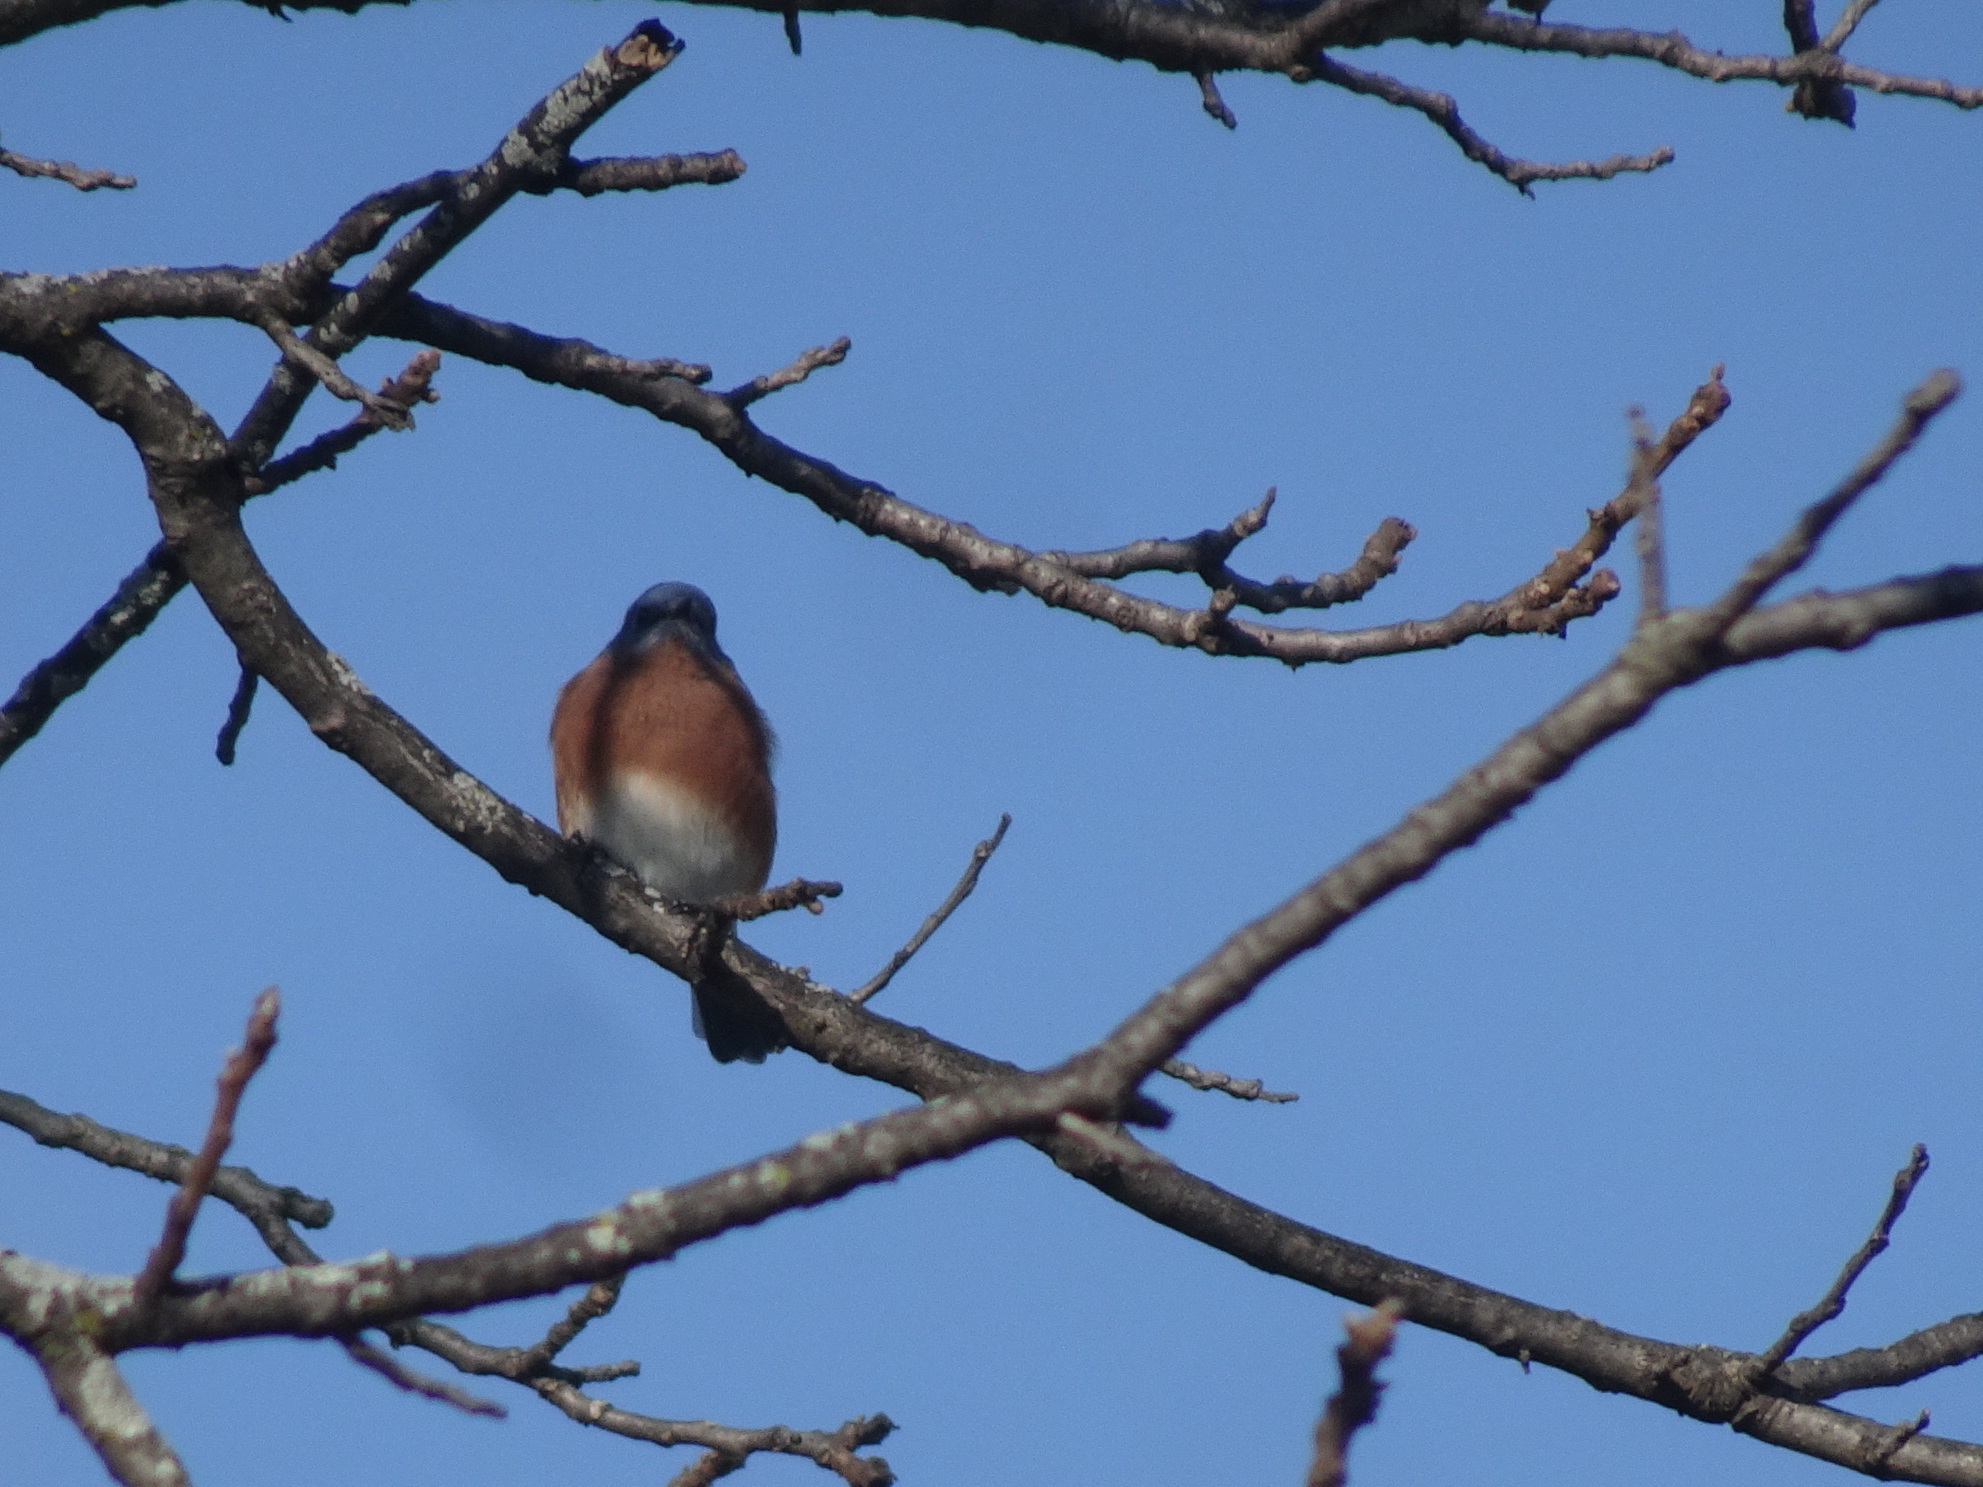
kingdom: Animalia
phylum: Chordata
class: Aves
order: Passeriformes
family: Turdidae
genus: Sialia
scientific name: Sialia sialis
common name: Eastern bluebird
